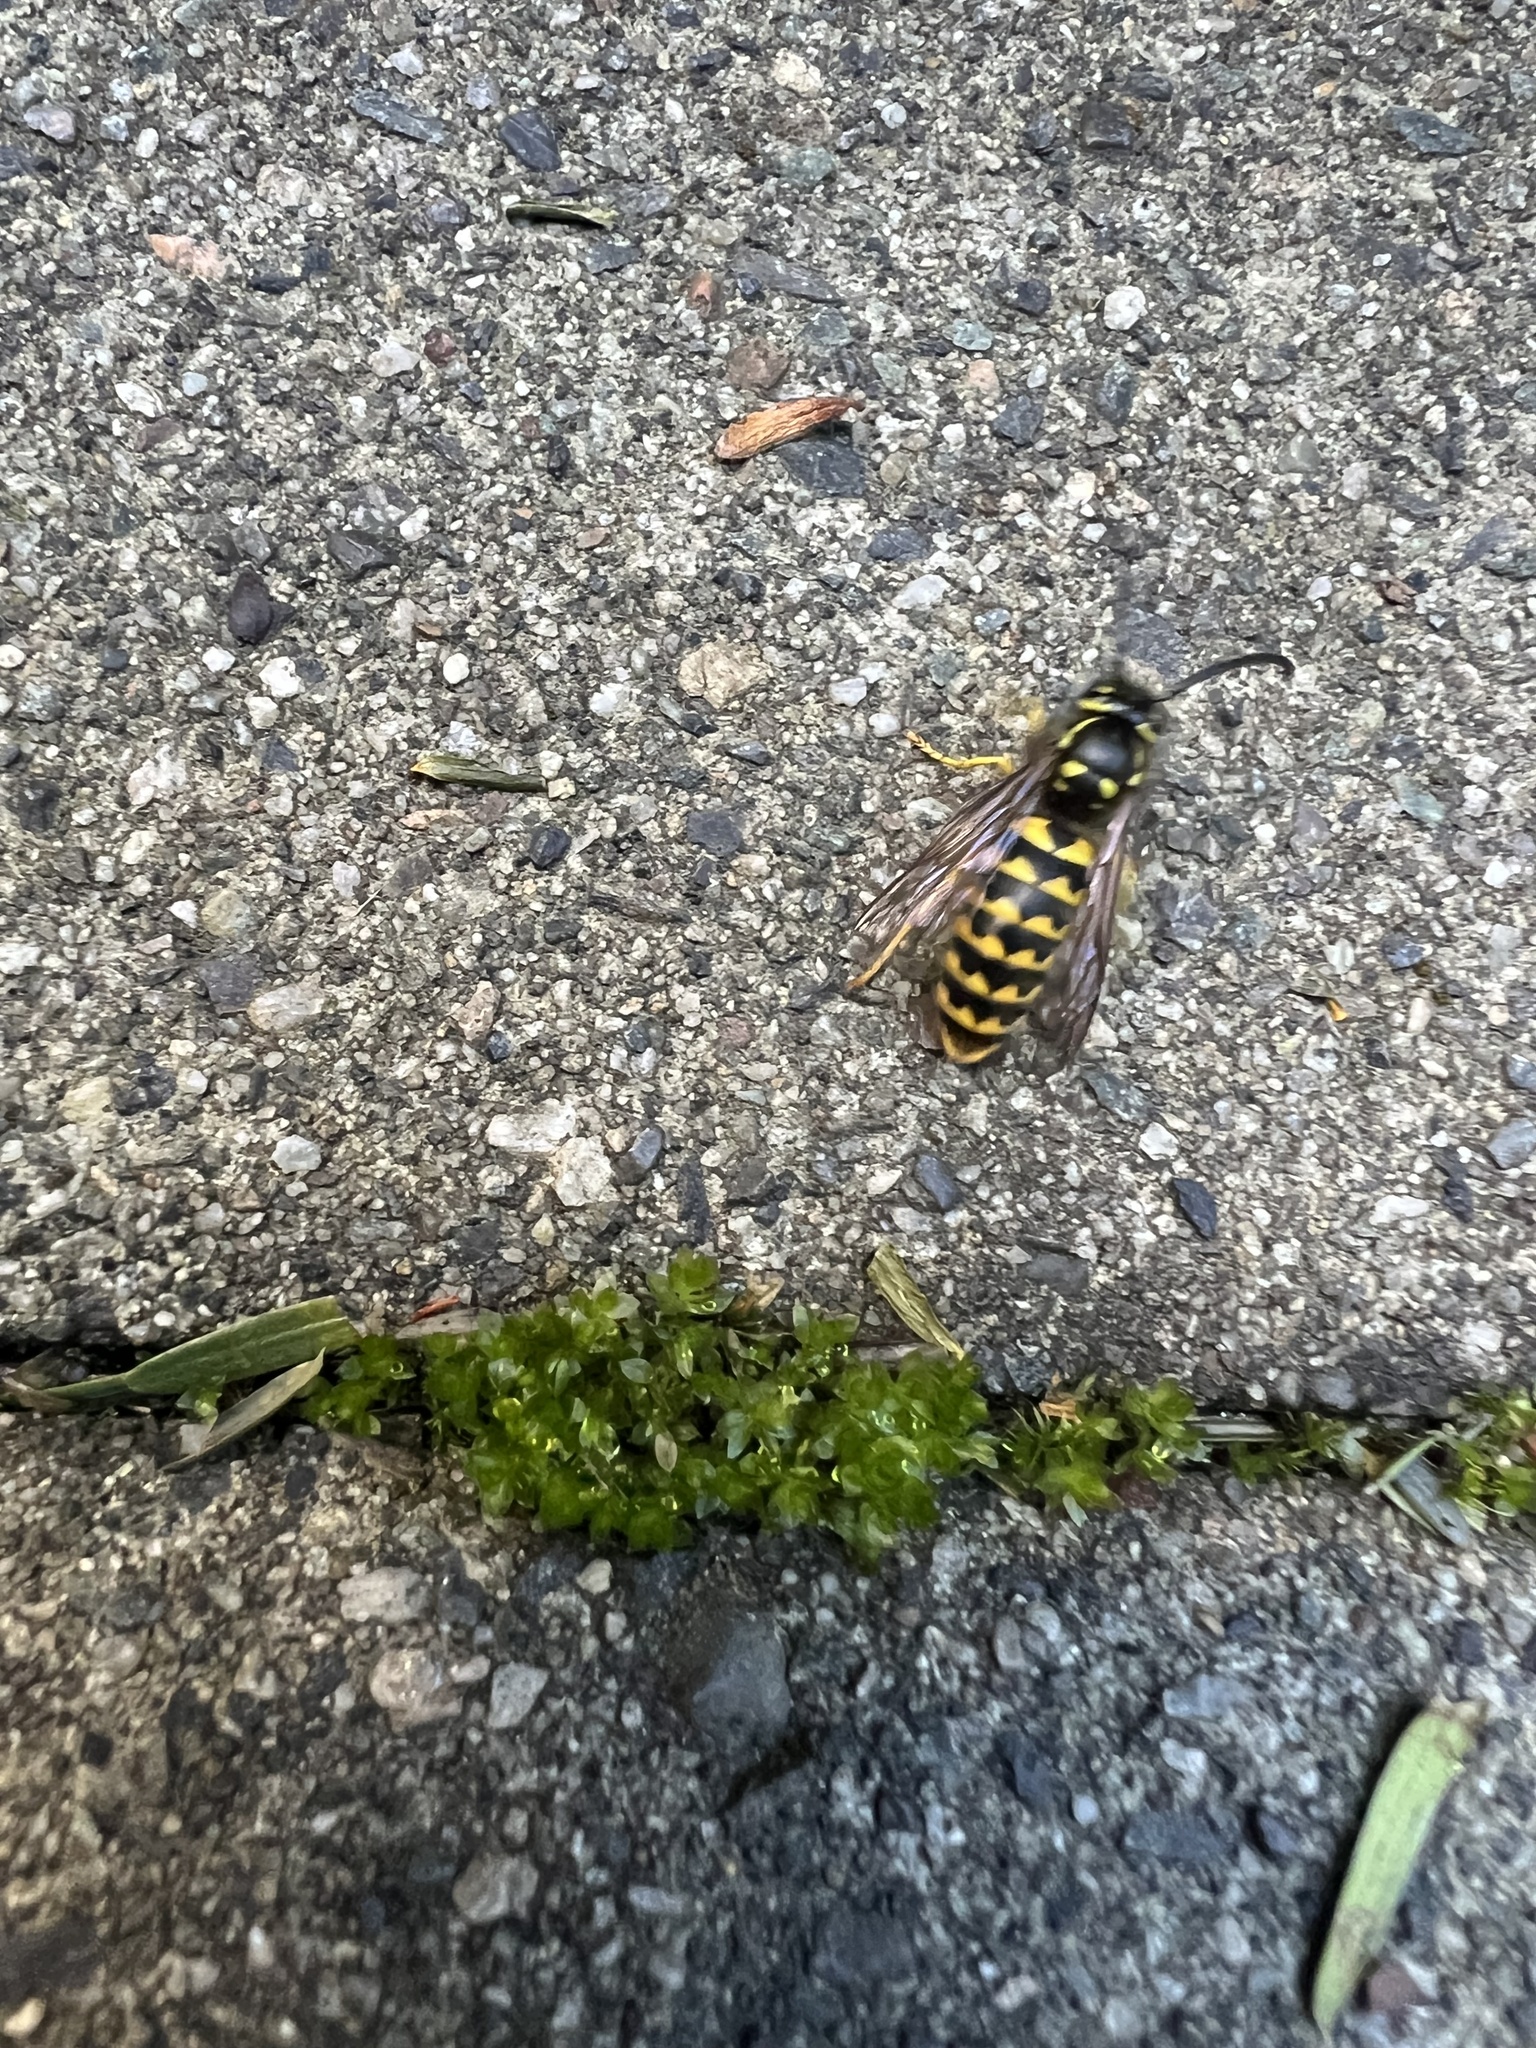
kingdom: Animalia
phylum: Arthropoda
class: Insecta
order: Hymenoptera
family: Vespidae
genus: Vespula
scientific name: Vespula pensylvanica
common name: Western yellowjacket
